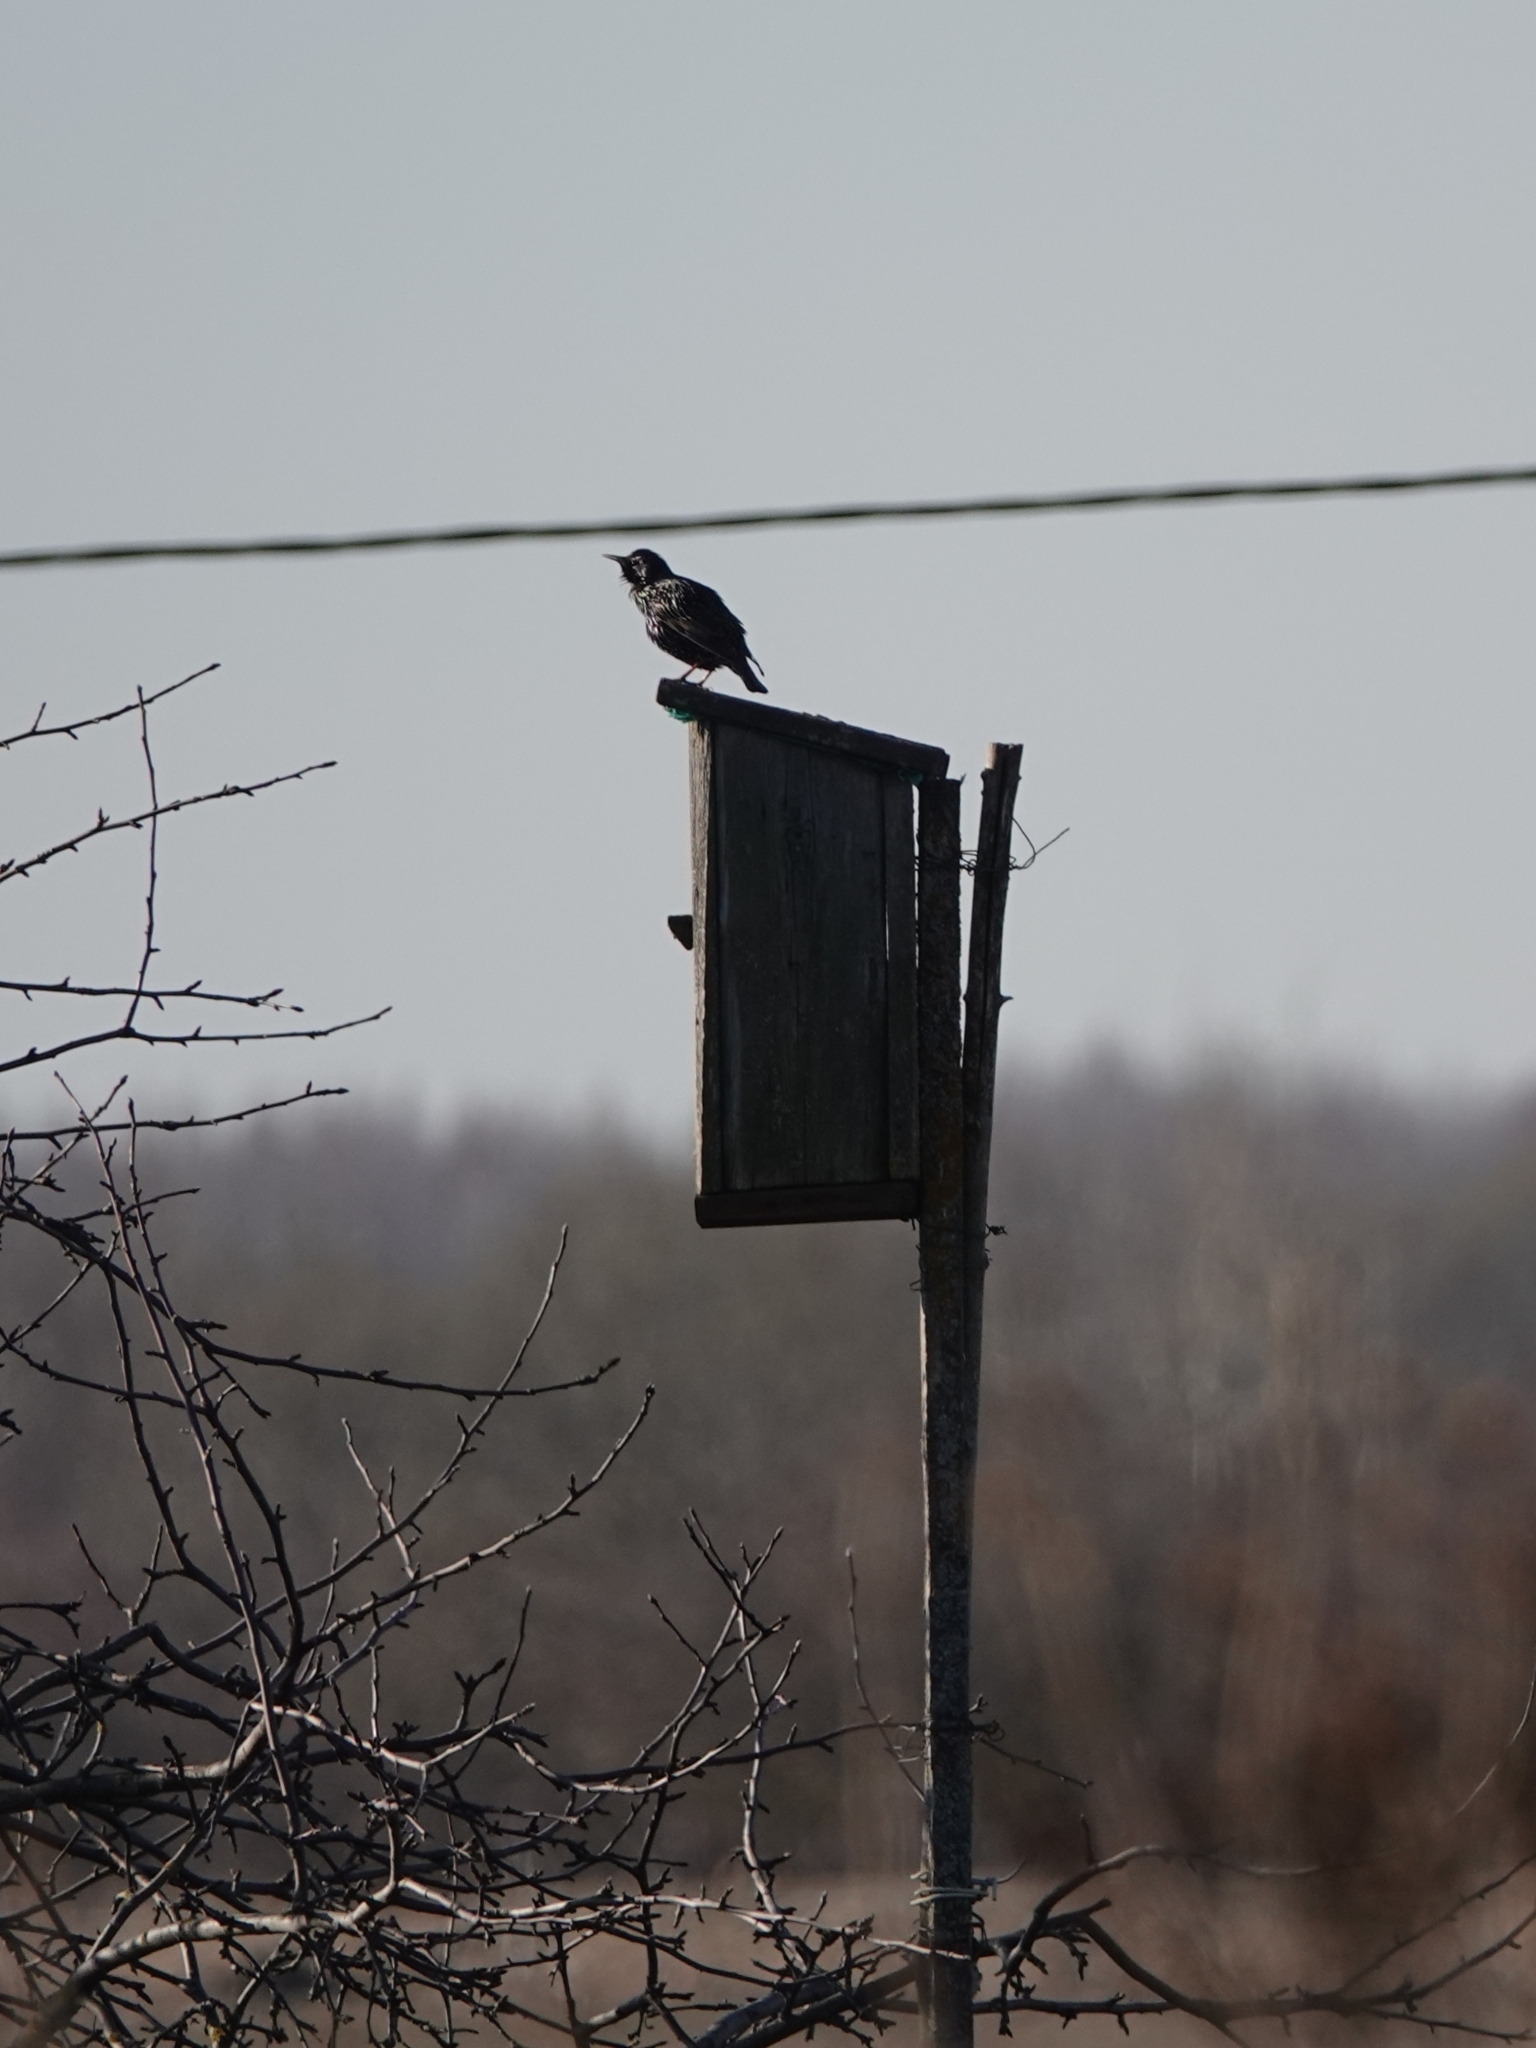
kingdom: Animalia
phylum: Chordata
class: Aves
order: Passeriformes
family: Sturnidae
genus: Sturnus
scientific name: Sturnus vulgaris
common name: Common starling
